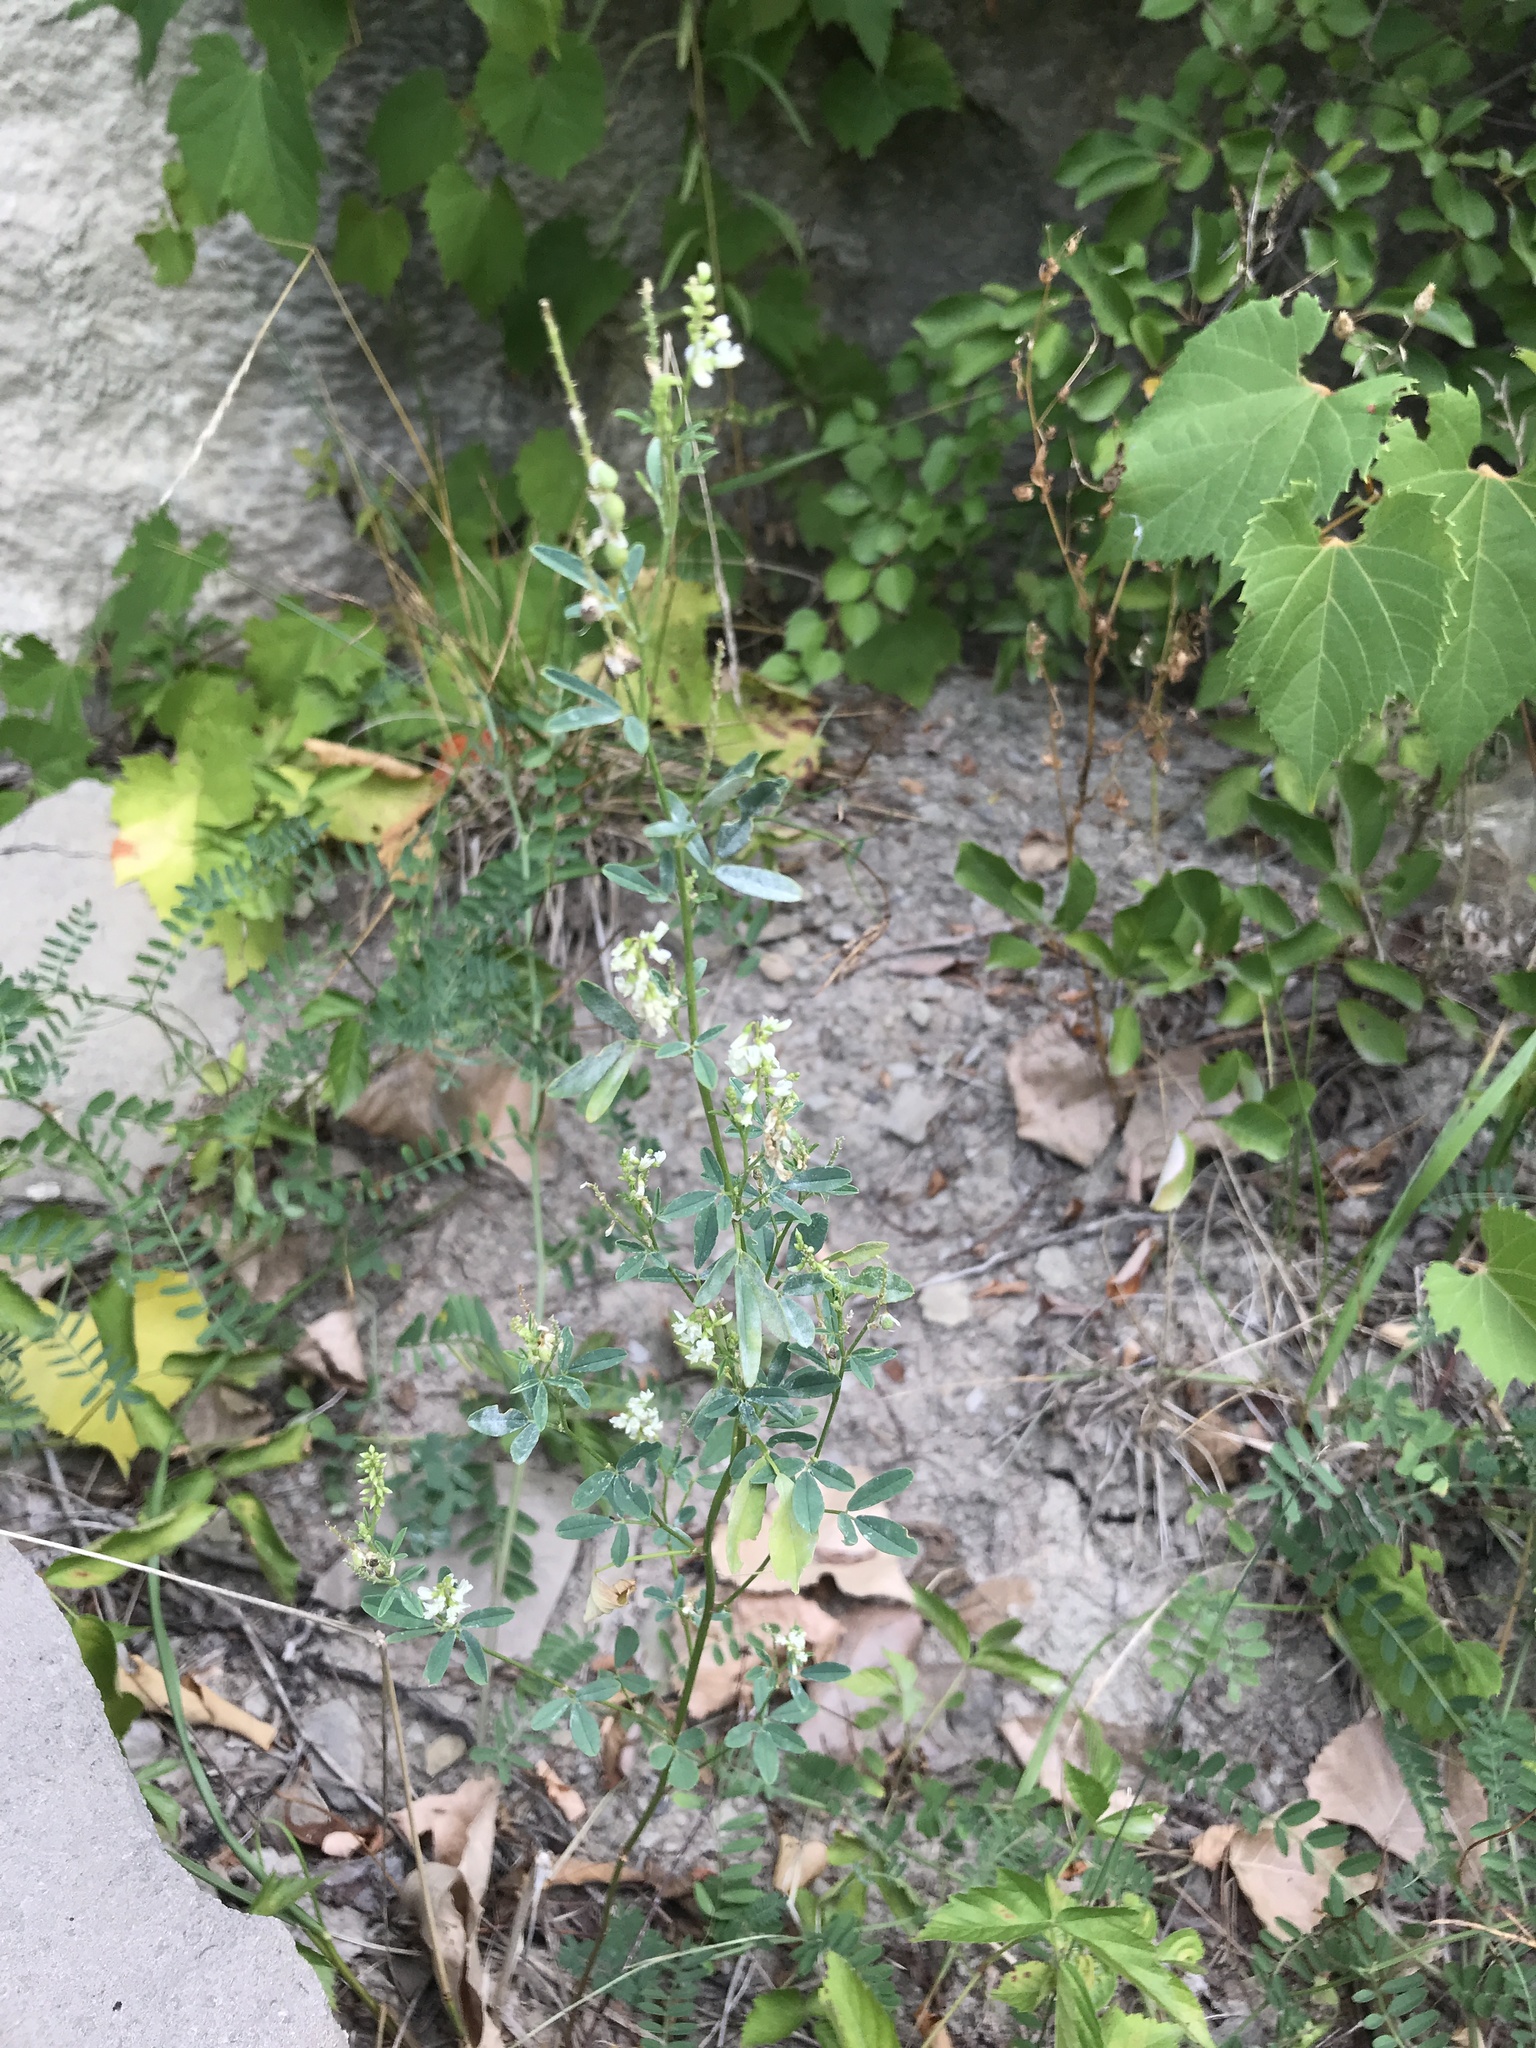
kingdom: Plantae
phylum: Tracheophyta
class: Magnoliopsida
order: Fabales
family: Fabaceae
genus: Melilotus
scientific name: Melilotus albus
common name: White melilot
